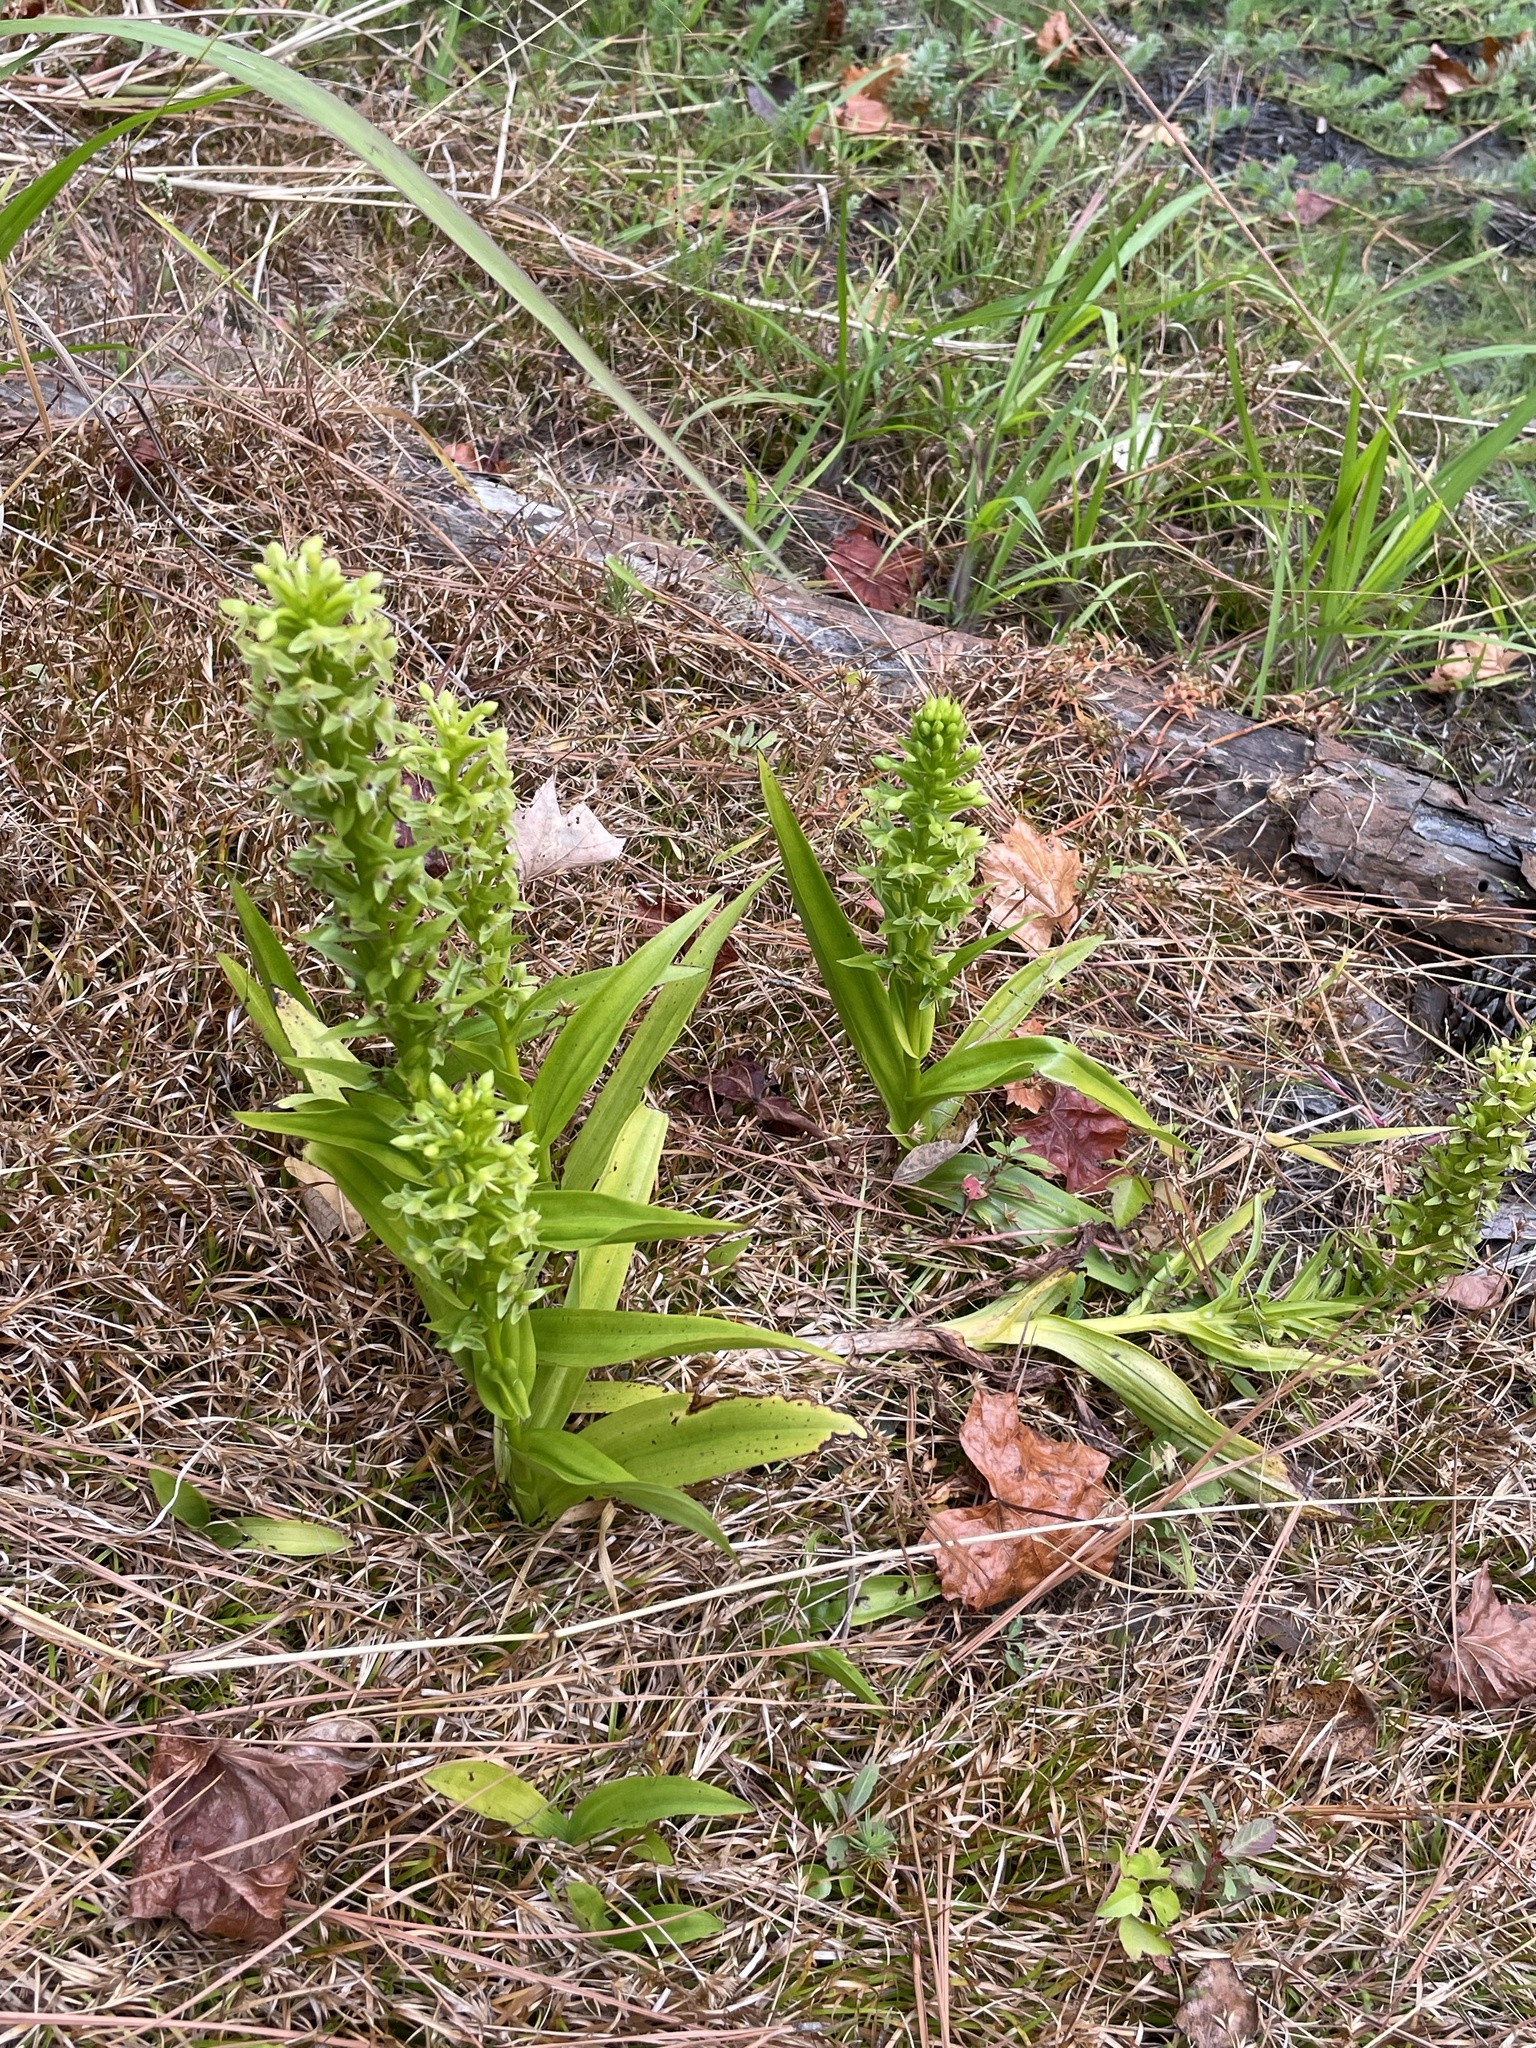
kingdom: Plantae
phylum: Tracheophyta
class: Liliopsida
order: Asparagales
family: Orchidaceae
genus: Habenaria
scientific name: Habenaria repens
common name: Water orchid
